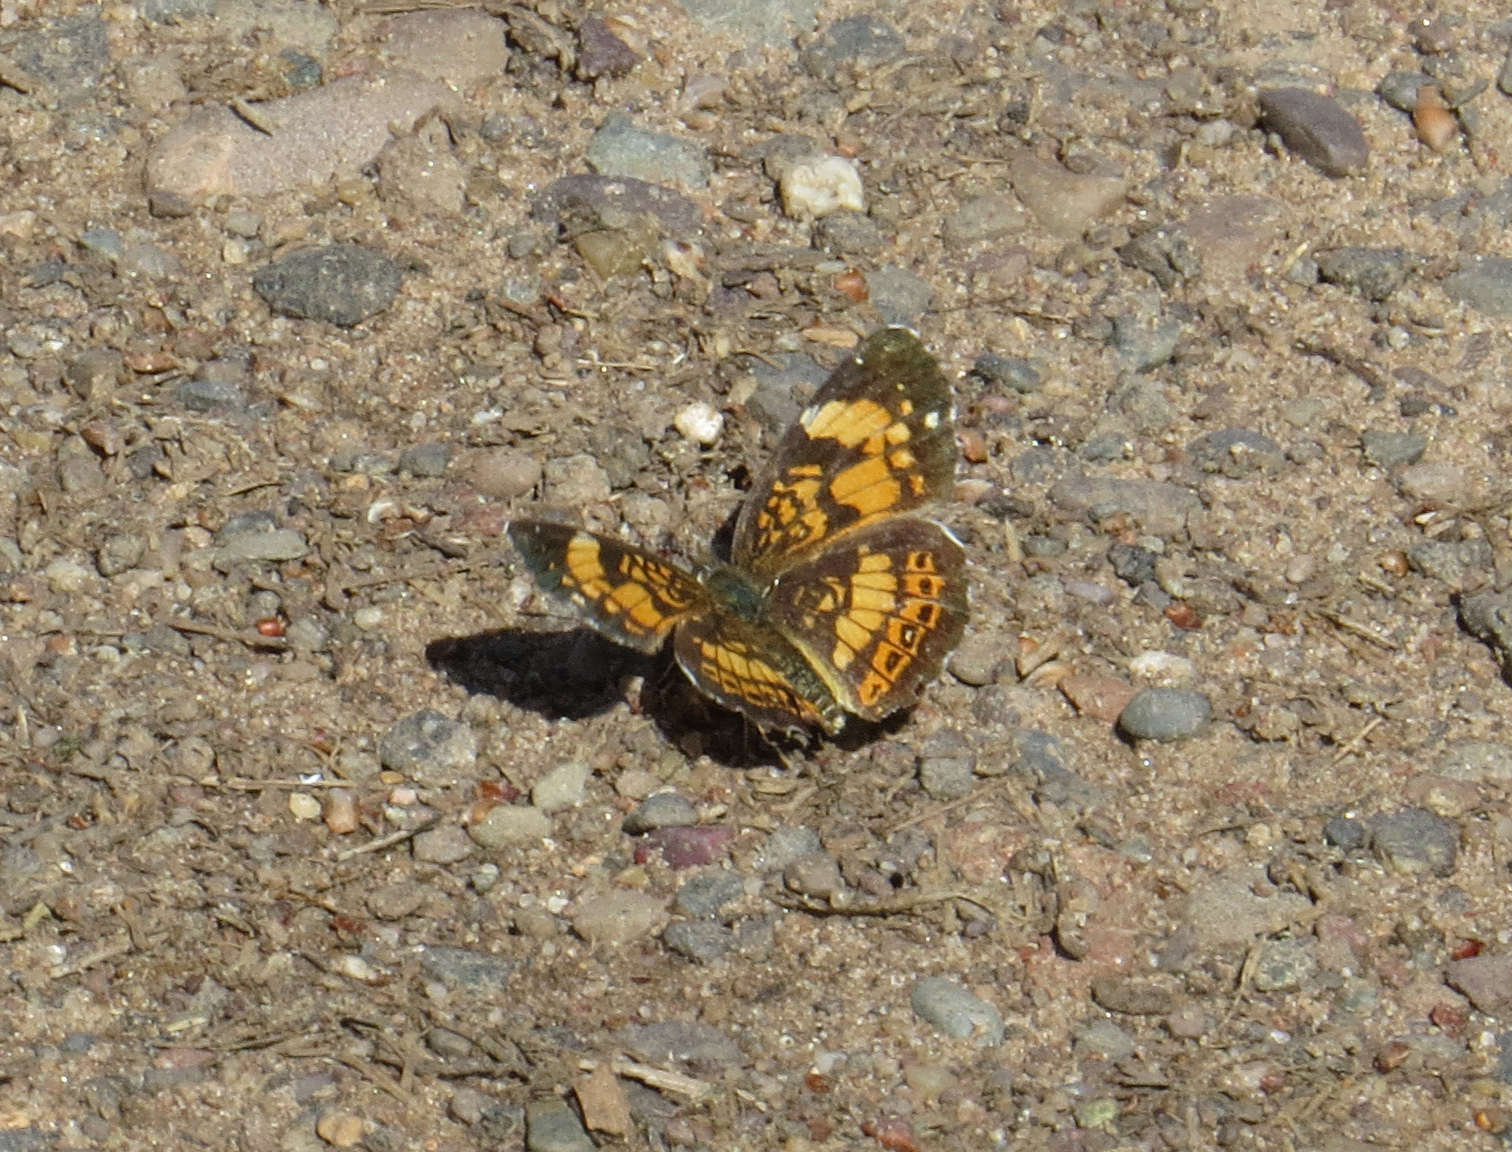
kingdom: Animalia
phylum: Arthropoda
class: Insecta
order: Lepidoptera
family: Nymphalidae
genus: Chlosyne
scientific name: Chlosyne nycteis
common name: Silvery checkerspot
